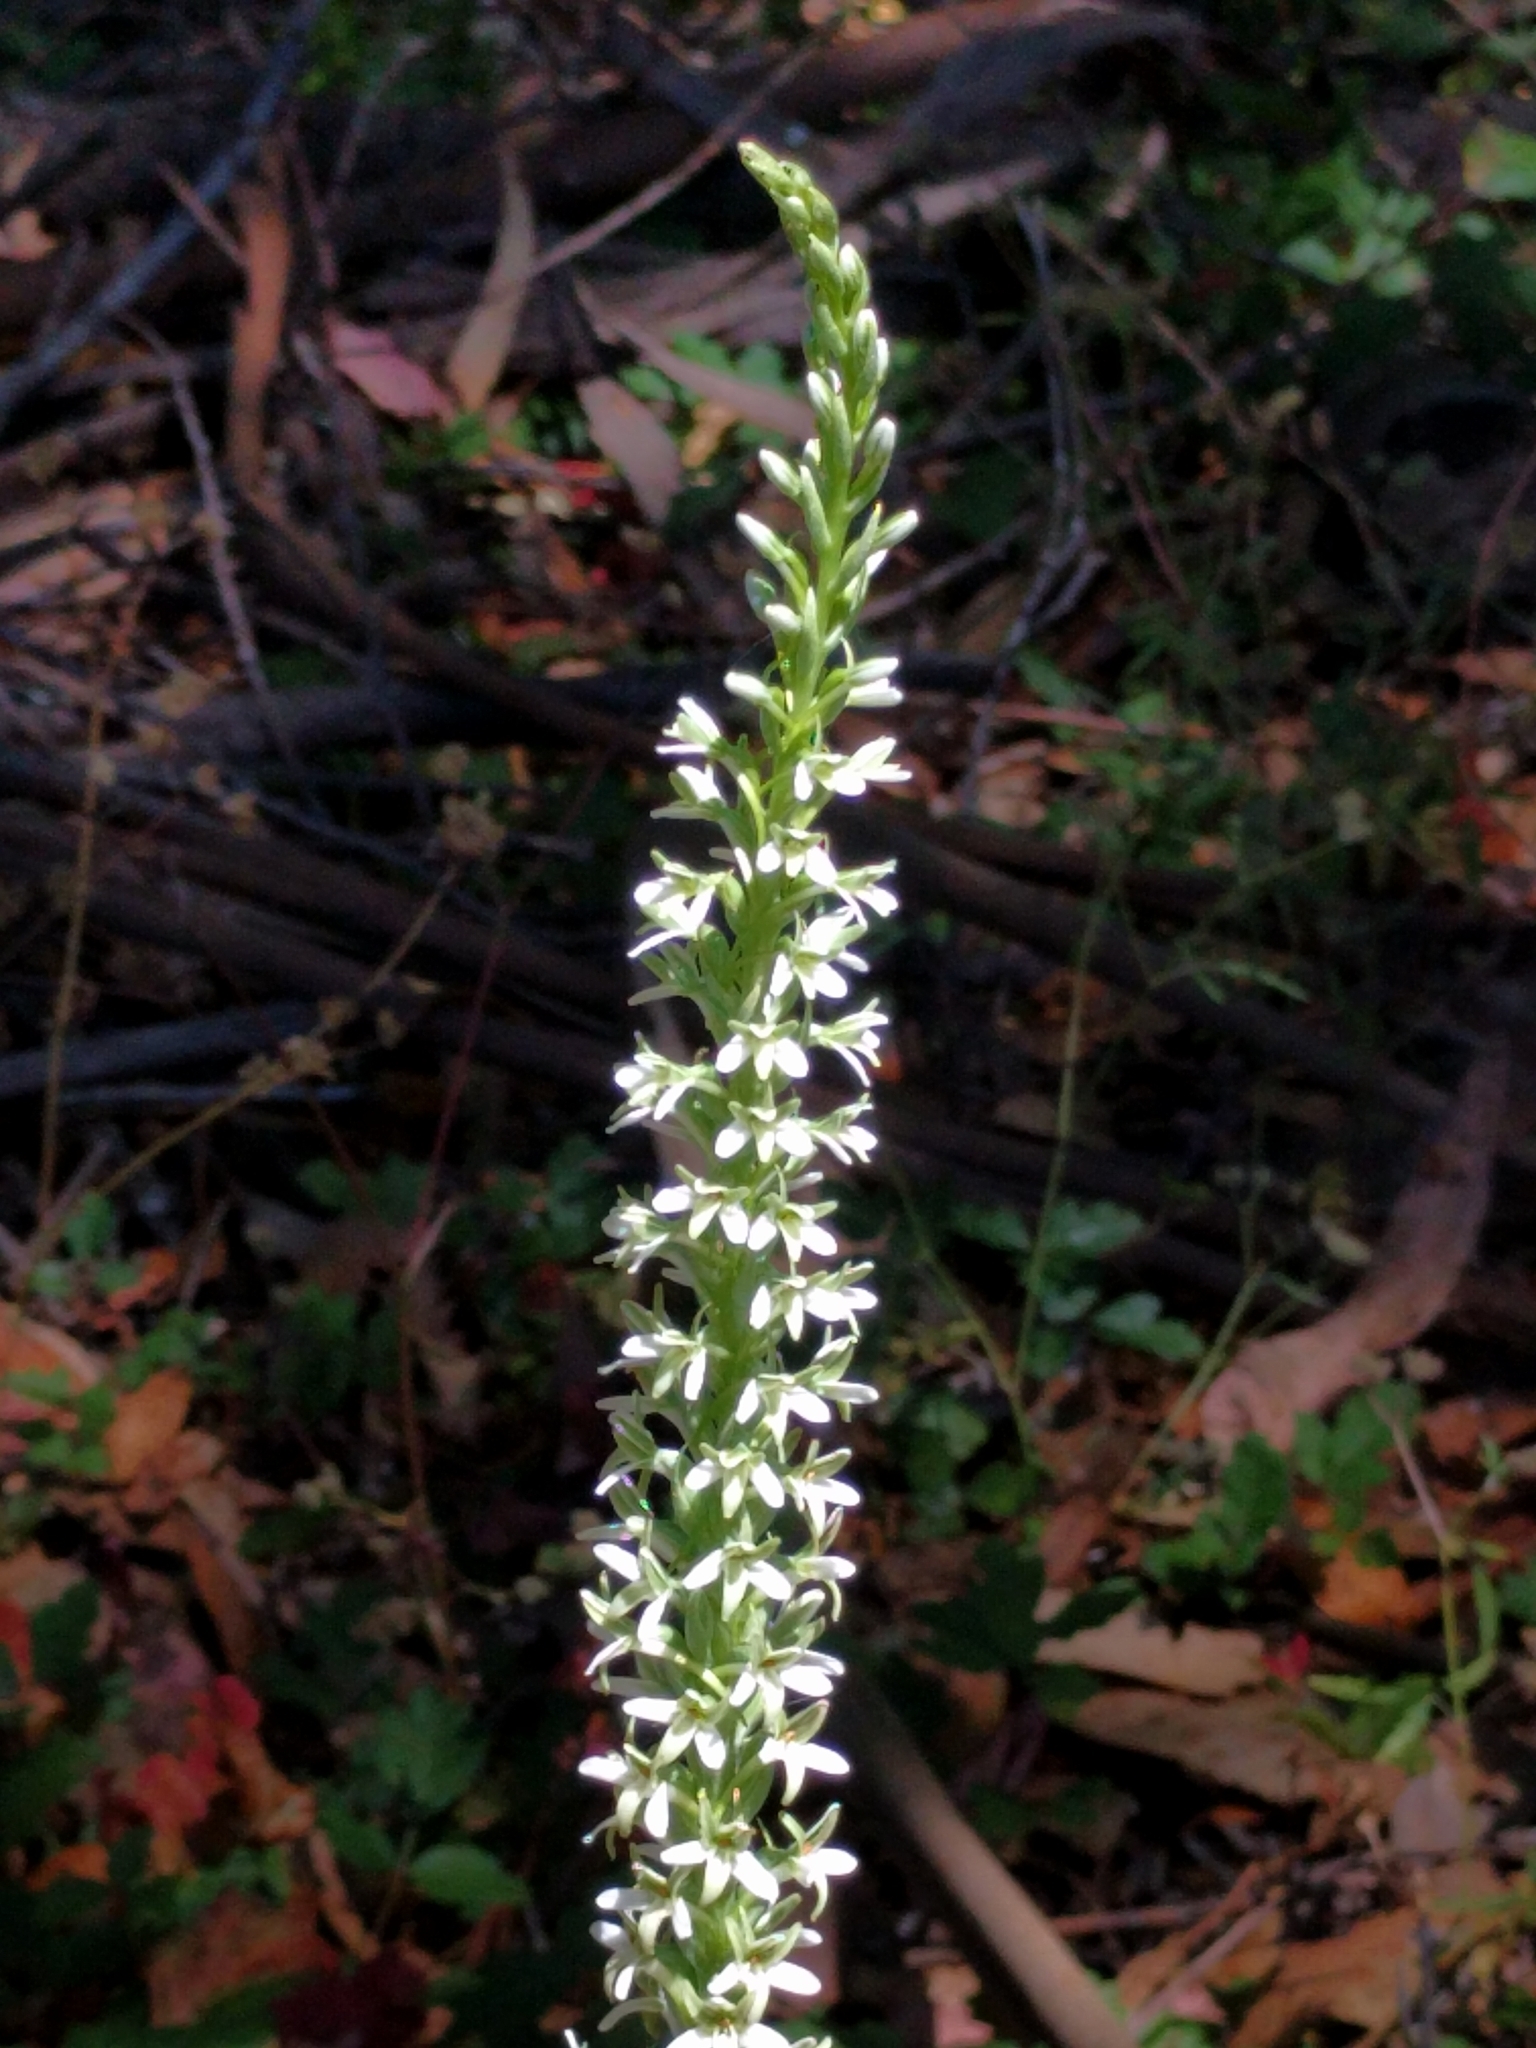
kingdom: Plantae
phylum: Tracheophyta
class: Liliopsida
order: Asparagales
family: Orchidaceae
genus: Platanthera
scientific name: Platanthera elegans
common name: Coast piperia
